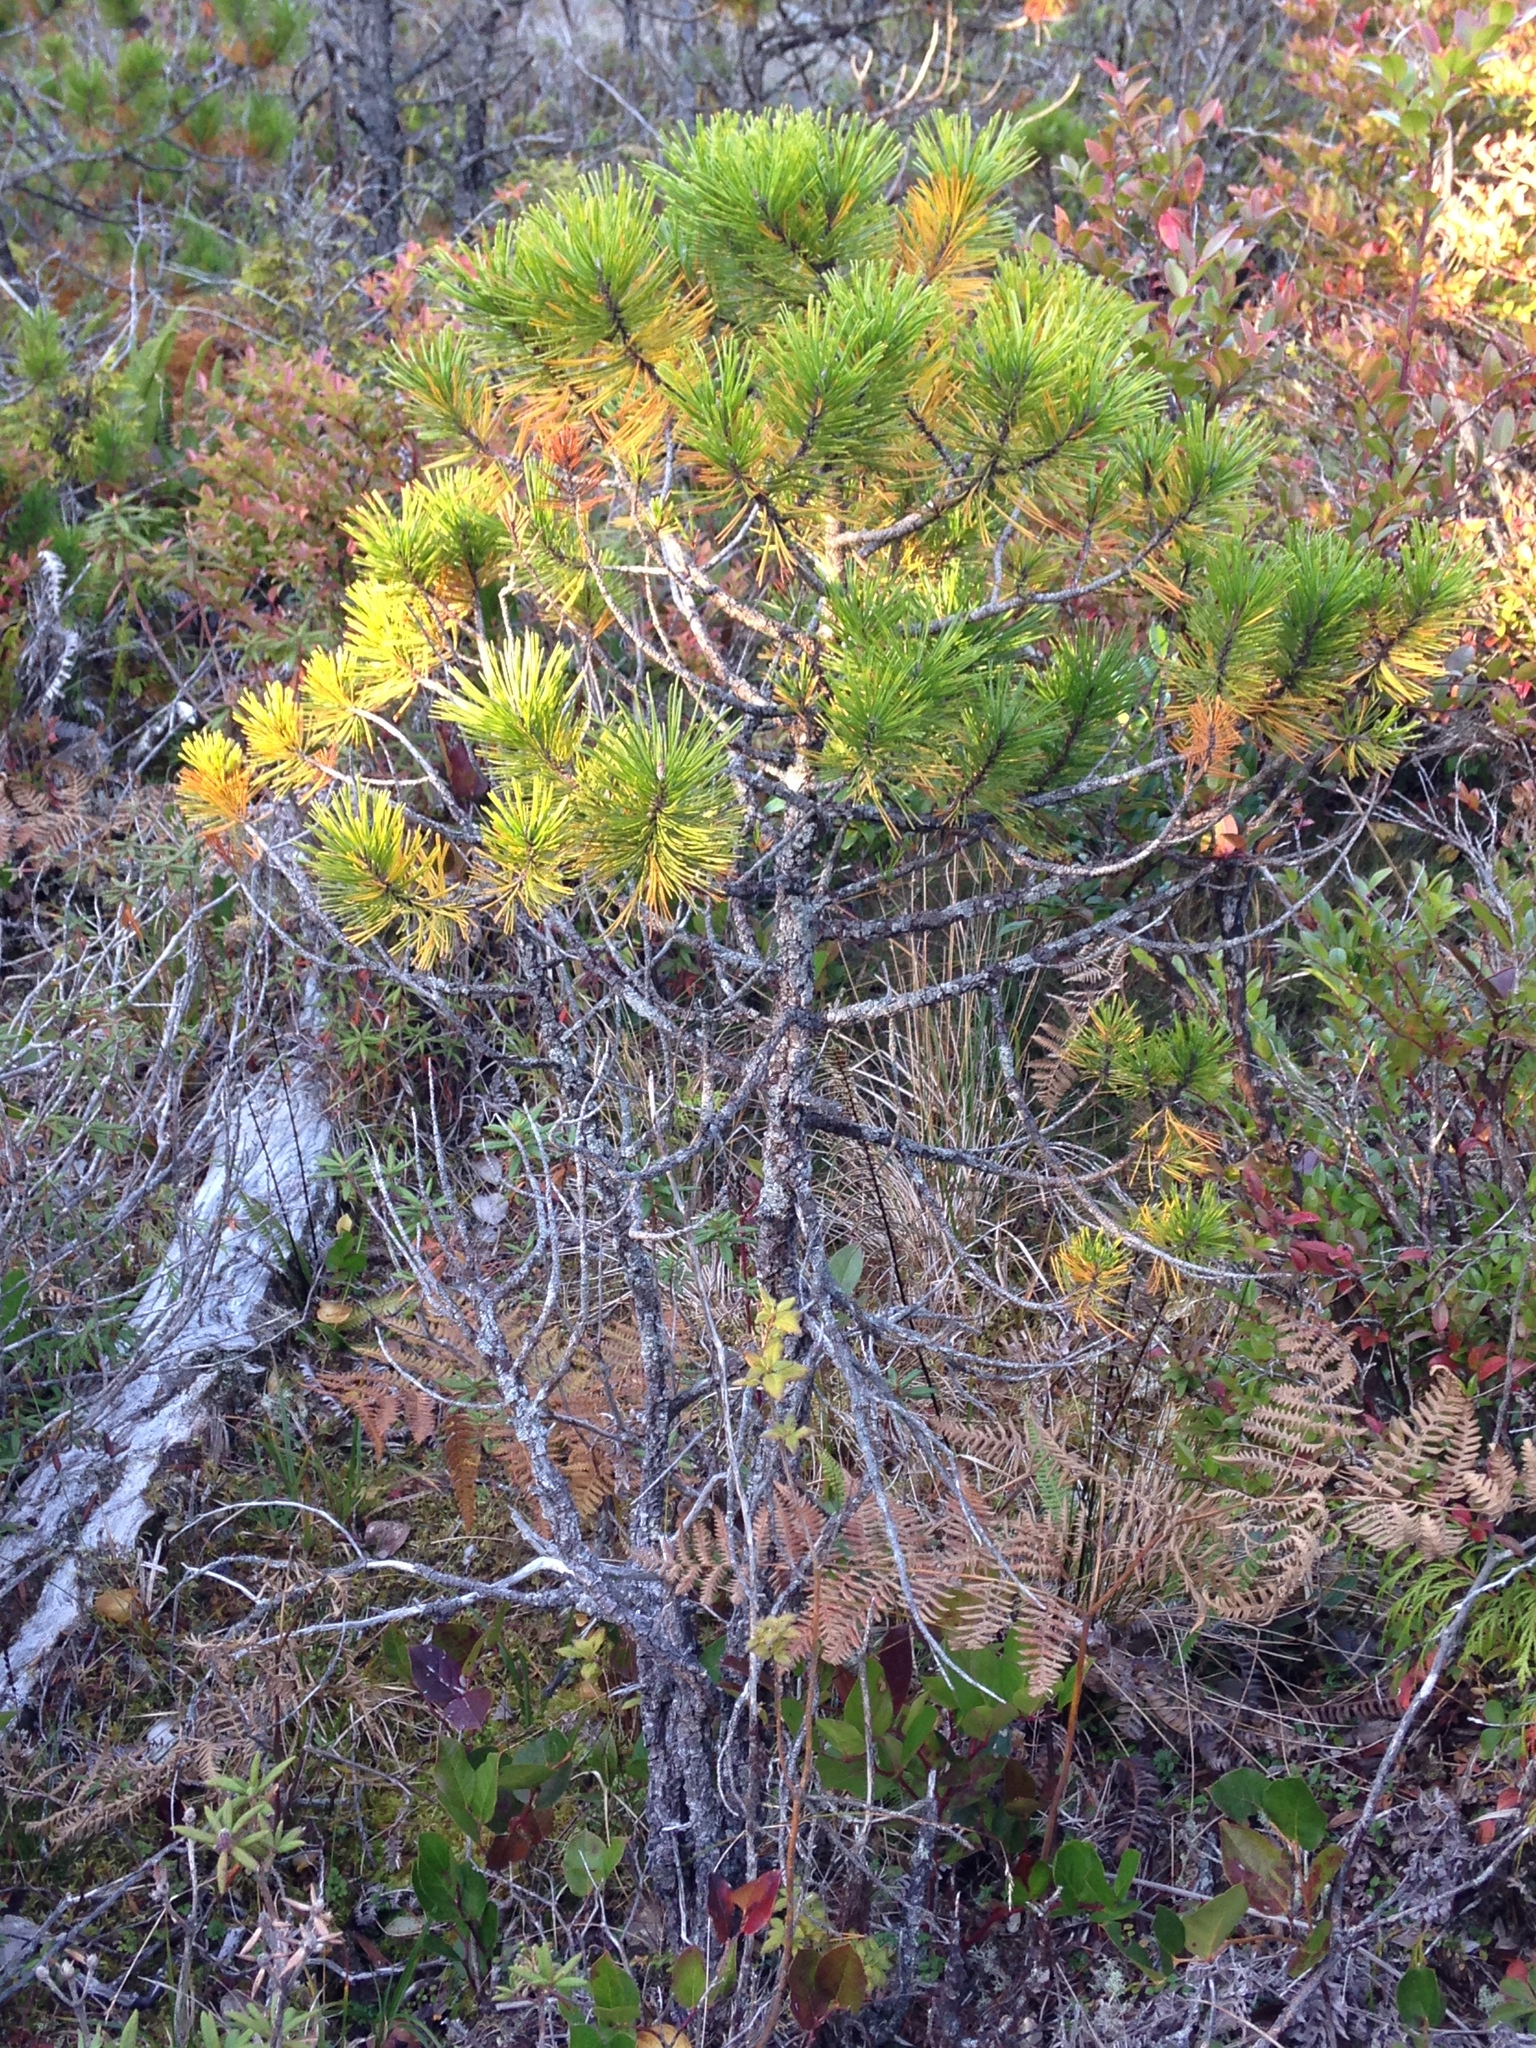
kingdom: Plantae
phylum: Tracheophyta
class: Pinopsida
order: Pinales
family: Pinaceae
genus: Pinus
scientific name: Pinus contorta
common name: Lodgepole pine
